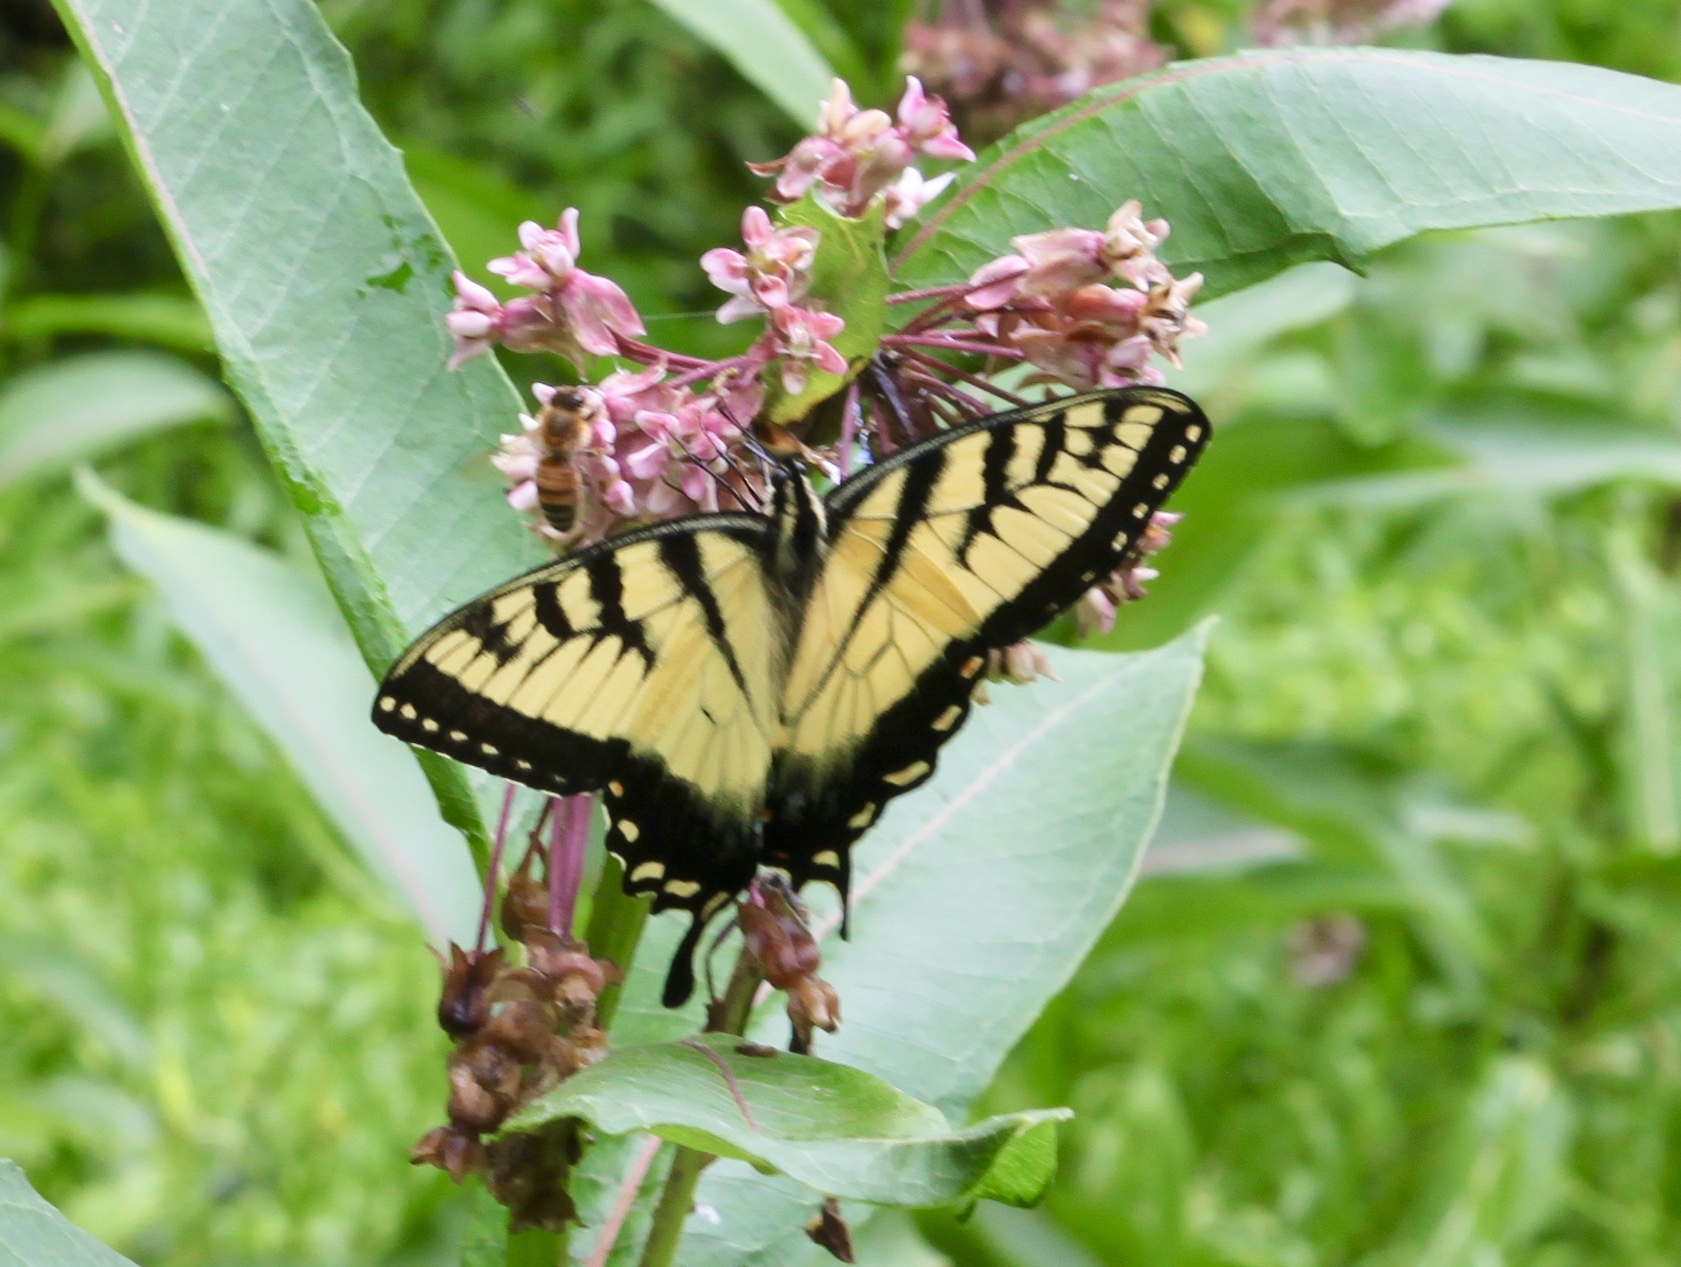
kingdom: Animalia
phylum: Arthropoda
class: Insecta
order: Lepidoptera
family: Papilionidae
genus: Papilio
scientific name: Papilio glaucus
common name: Tiger swallowtail
